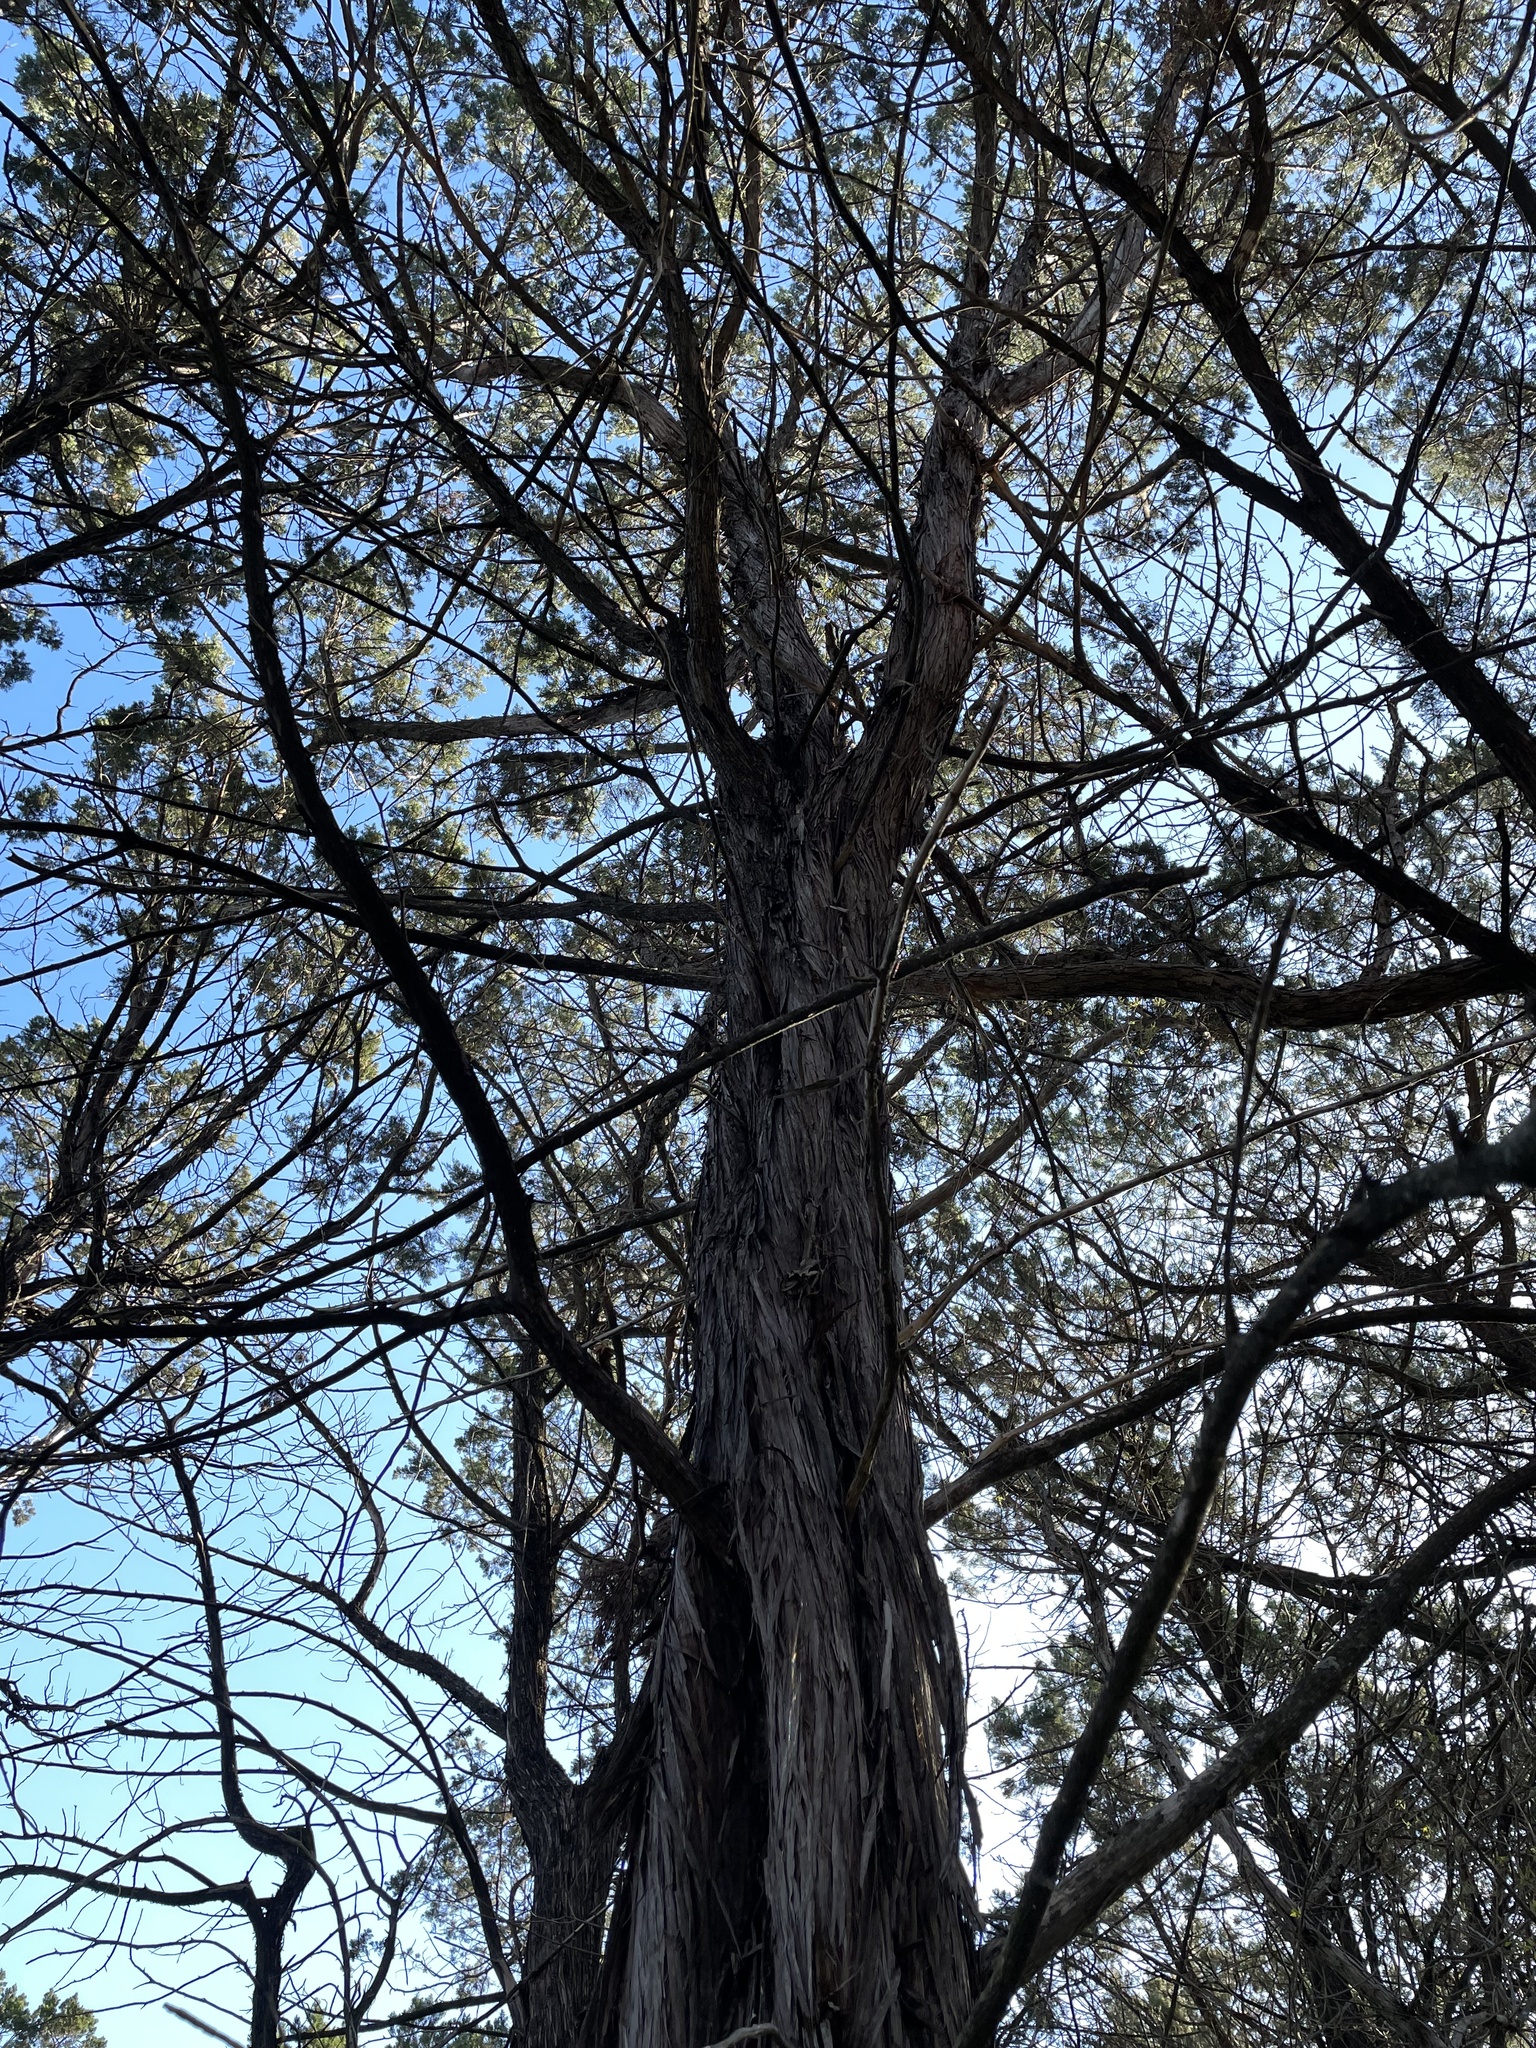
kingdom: Plantae
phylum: Tracheophyta
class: Pinopsida
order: Pinales
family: Cupressaceae
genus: Juniperus
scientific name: Juniperus ashei
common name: Mexican juniper
